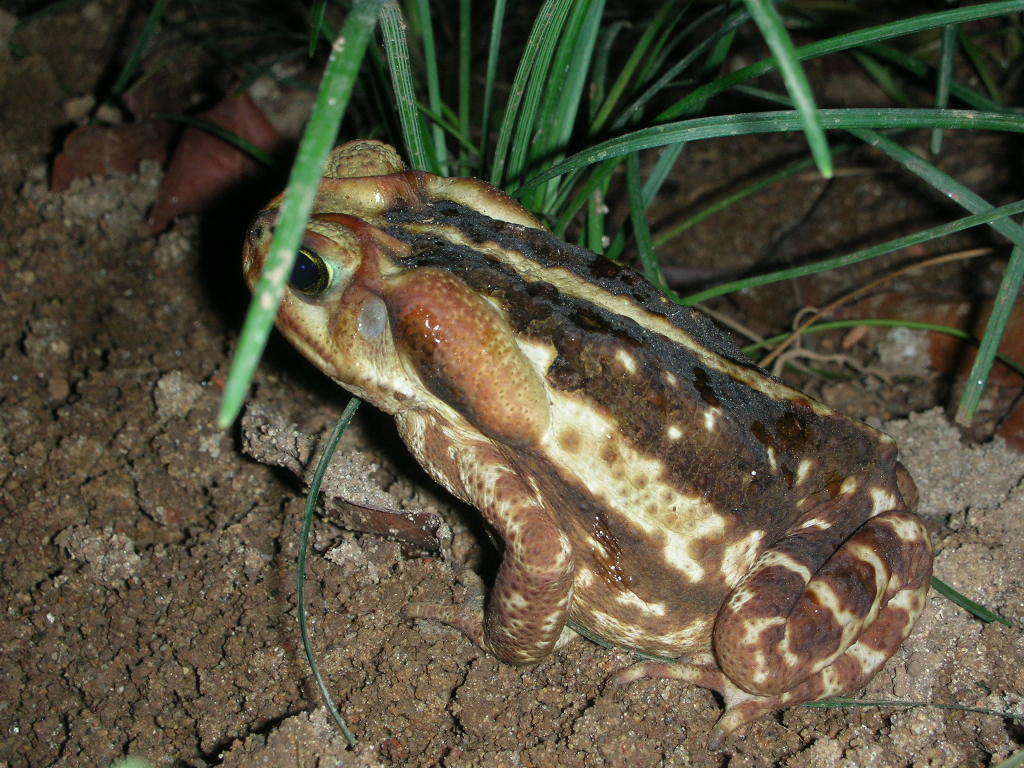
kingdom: Animalia
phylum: Chordata
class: Amphibia
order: Anura
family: Bufonidae
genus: Rhinella
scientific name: Rhinella icterica
